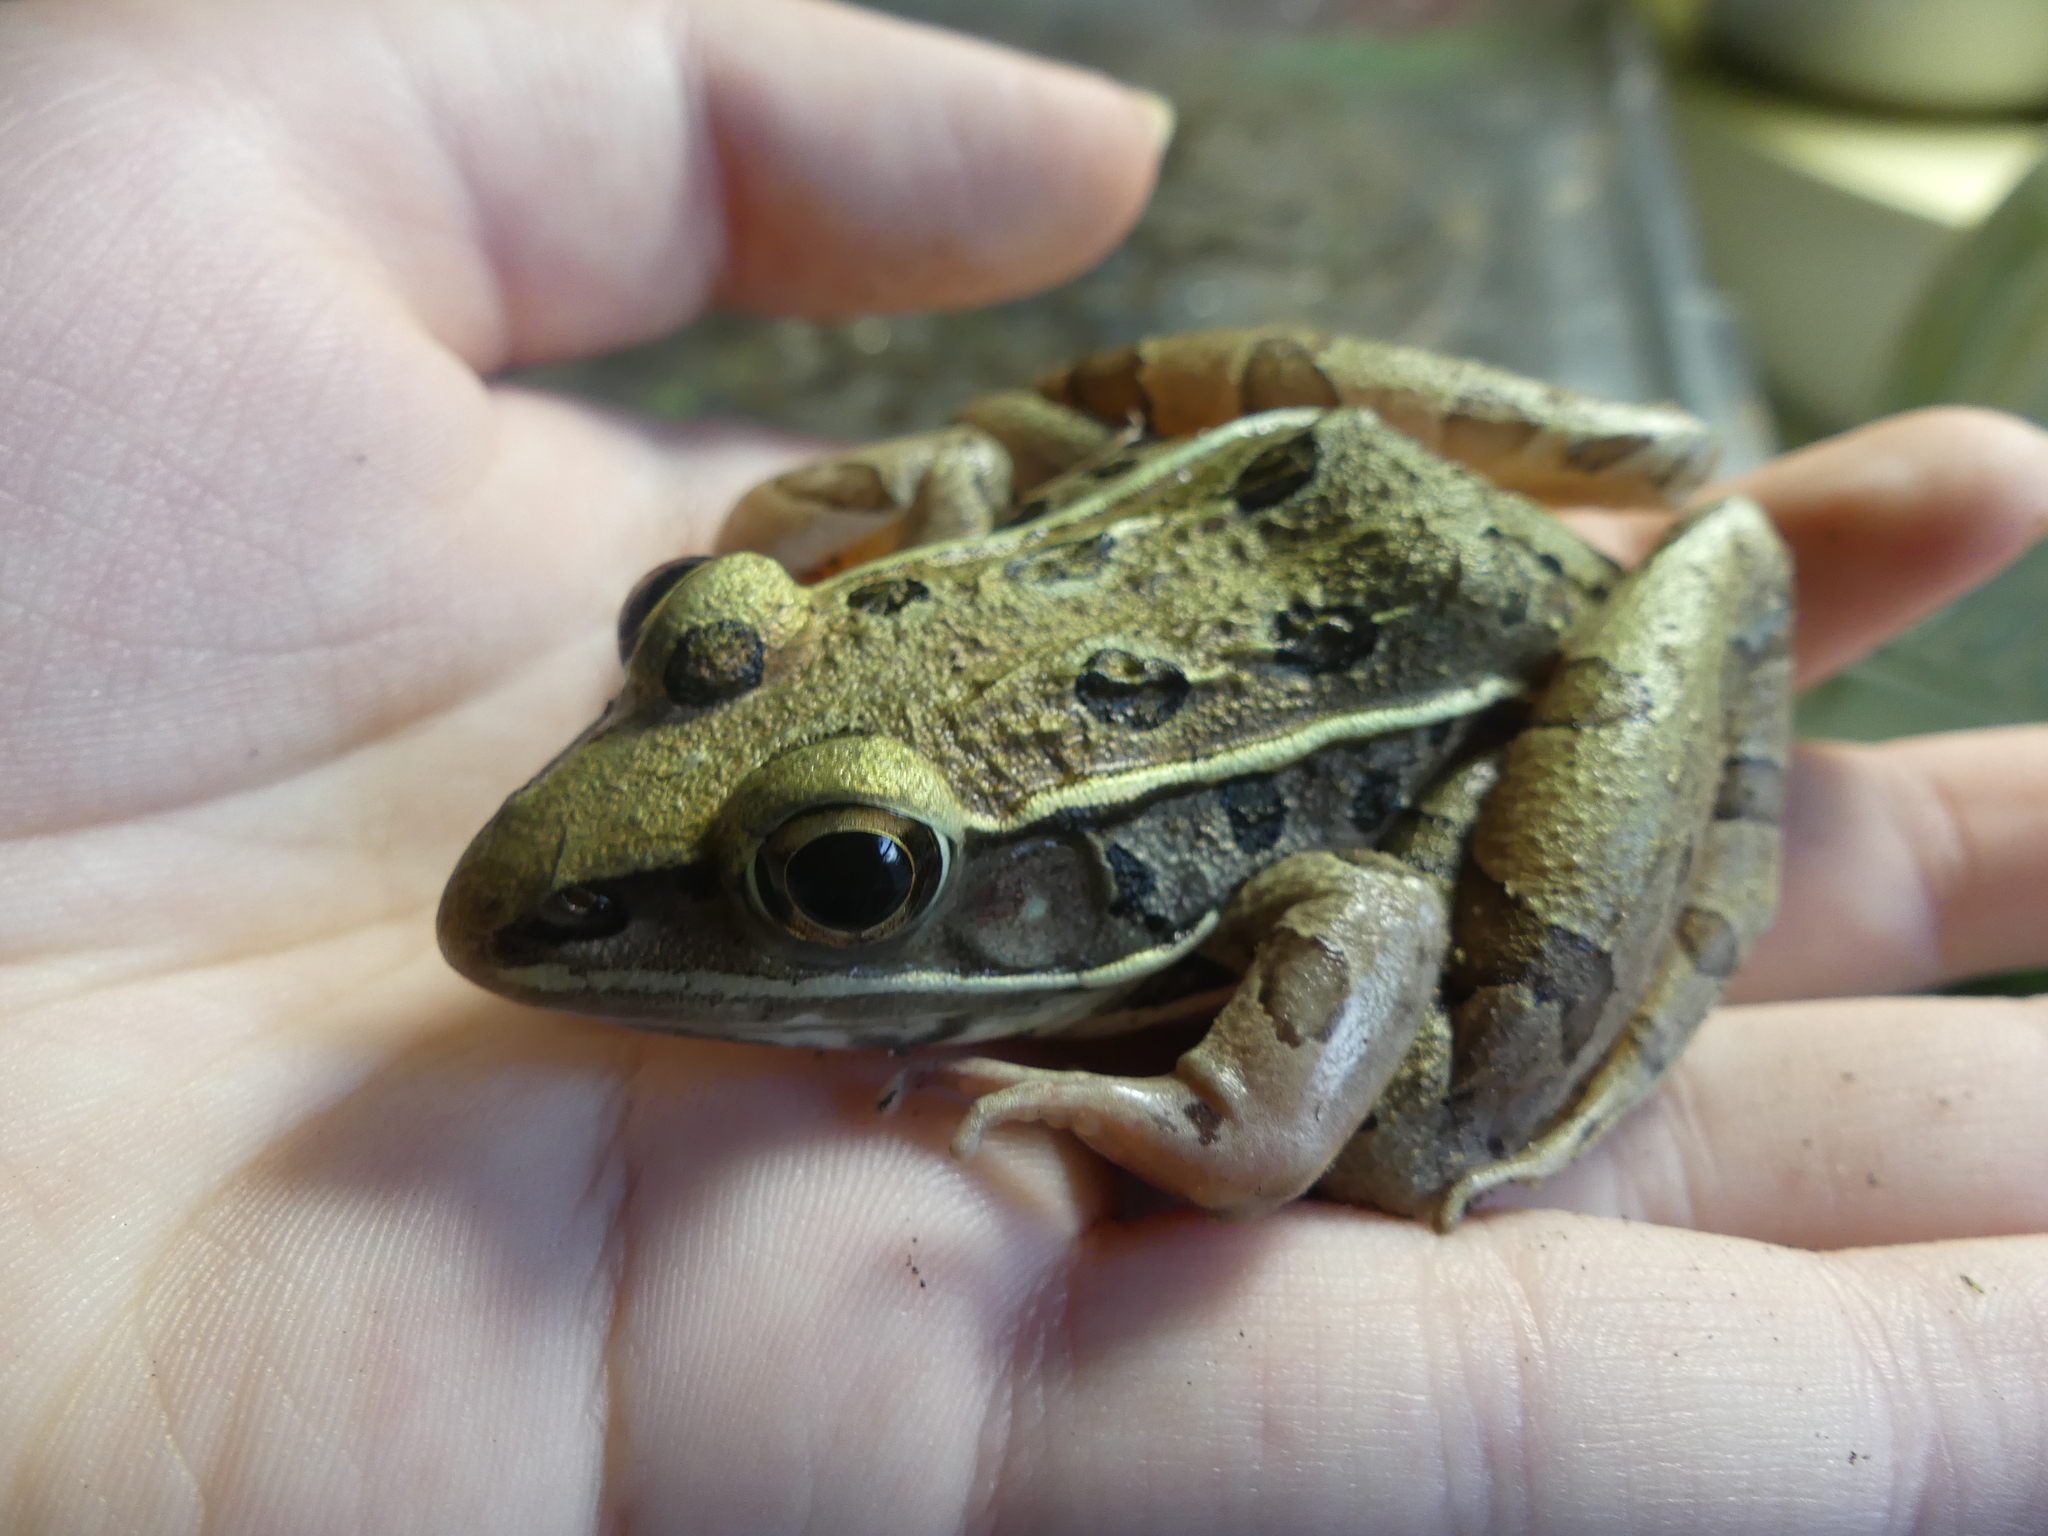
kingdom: Animalia
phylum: Chordata
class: Amphibia
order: Anura
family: Ranidae
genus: Lithobates
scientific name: Lithobates sphenocephalus
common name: Southern leopard frog
